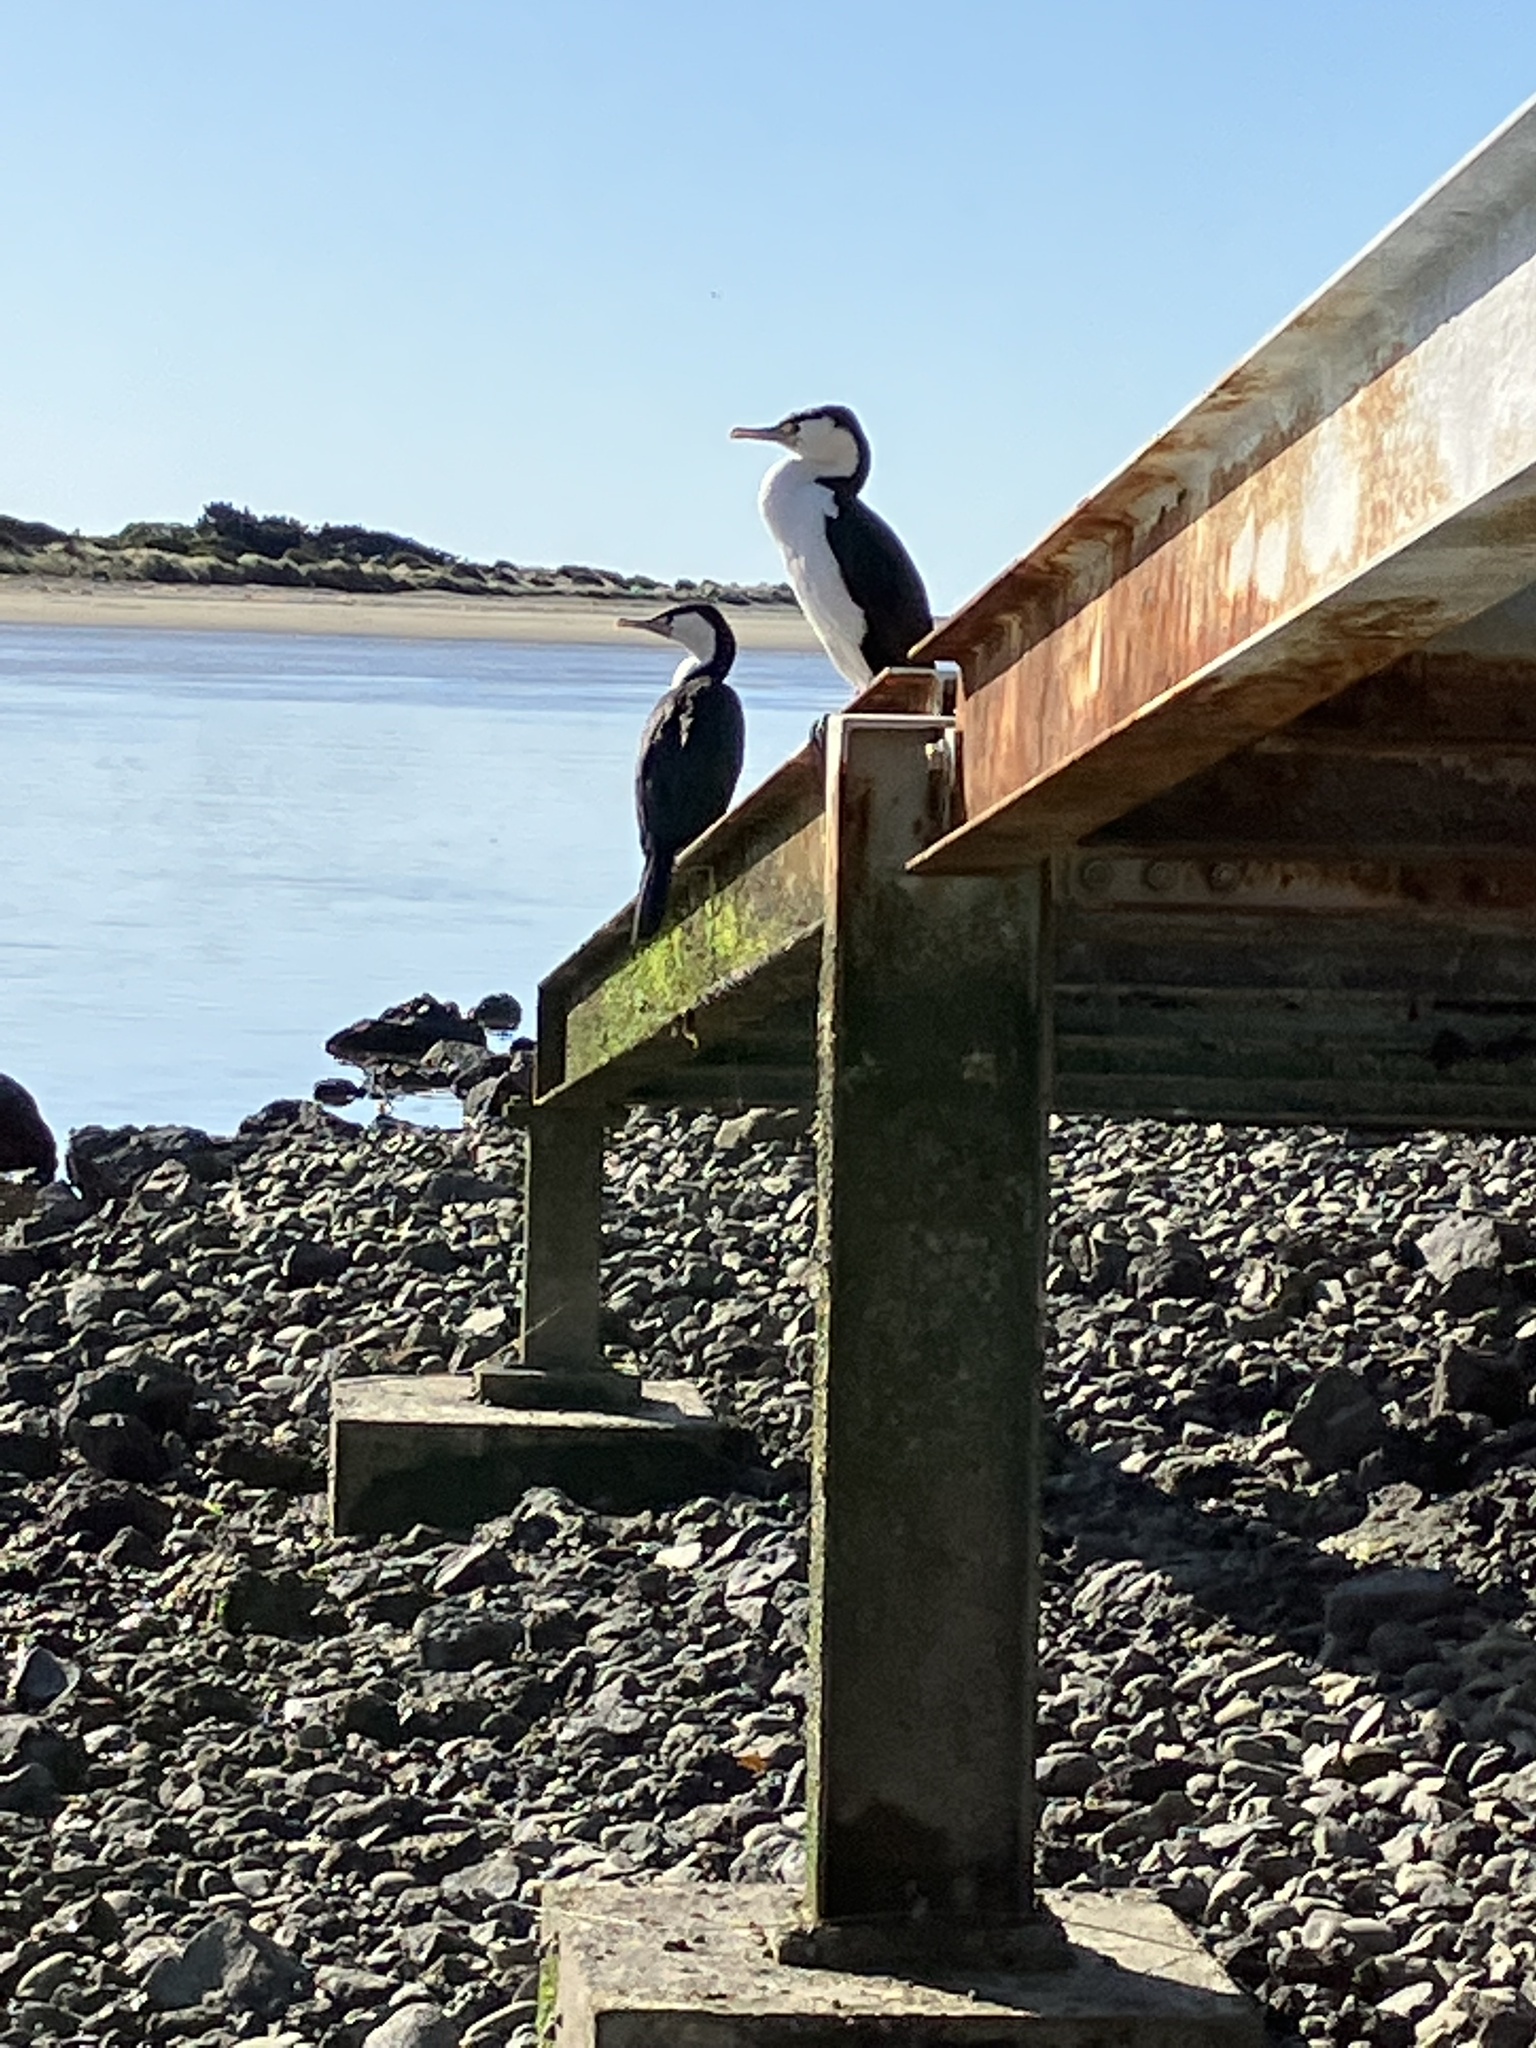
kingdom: Animalia
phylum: Chordata
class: Aves
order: Suliformes
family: Phalacrocoracidae
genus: Phalacrocorax
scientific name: Phalacrocorax varius
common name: Pied cormorant
